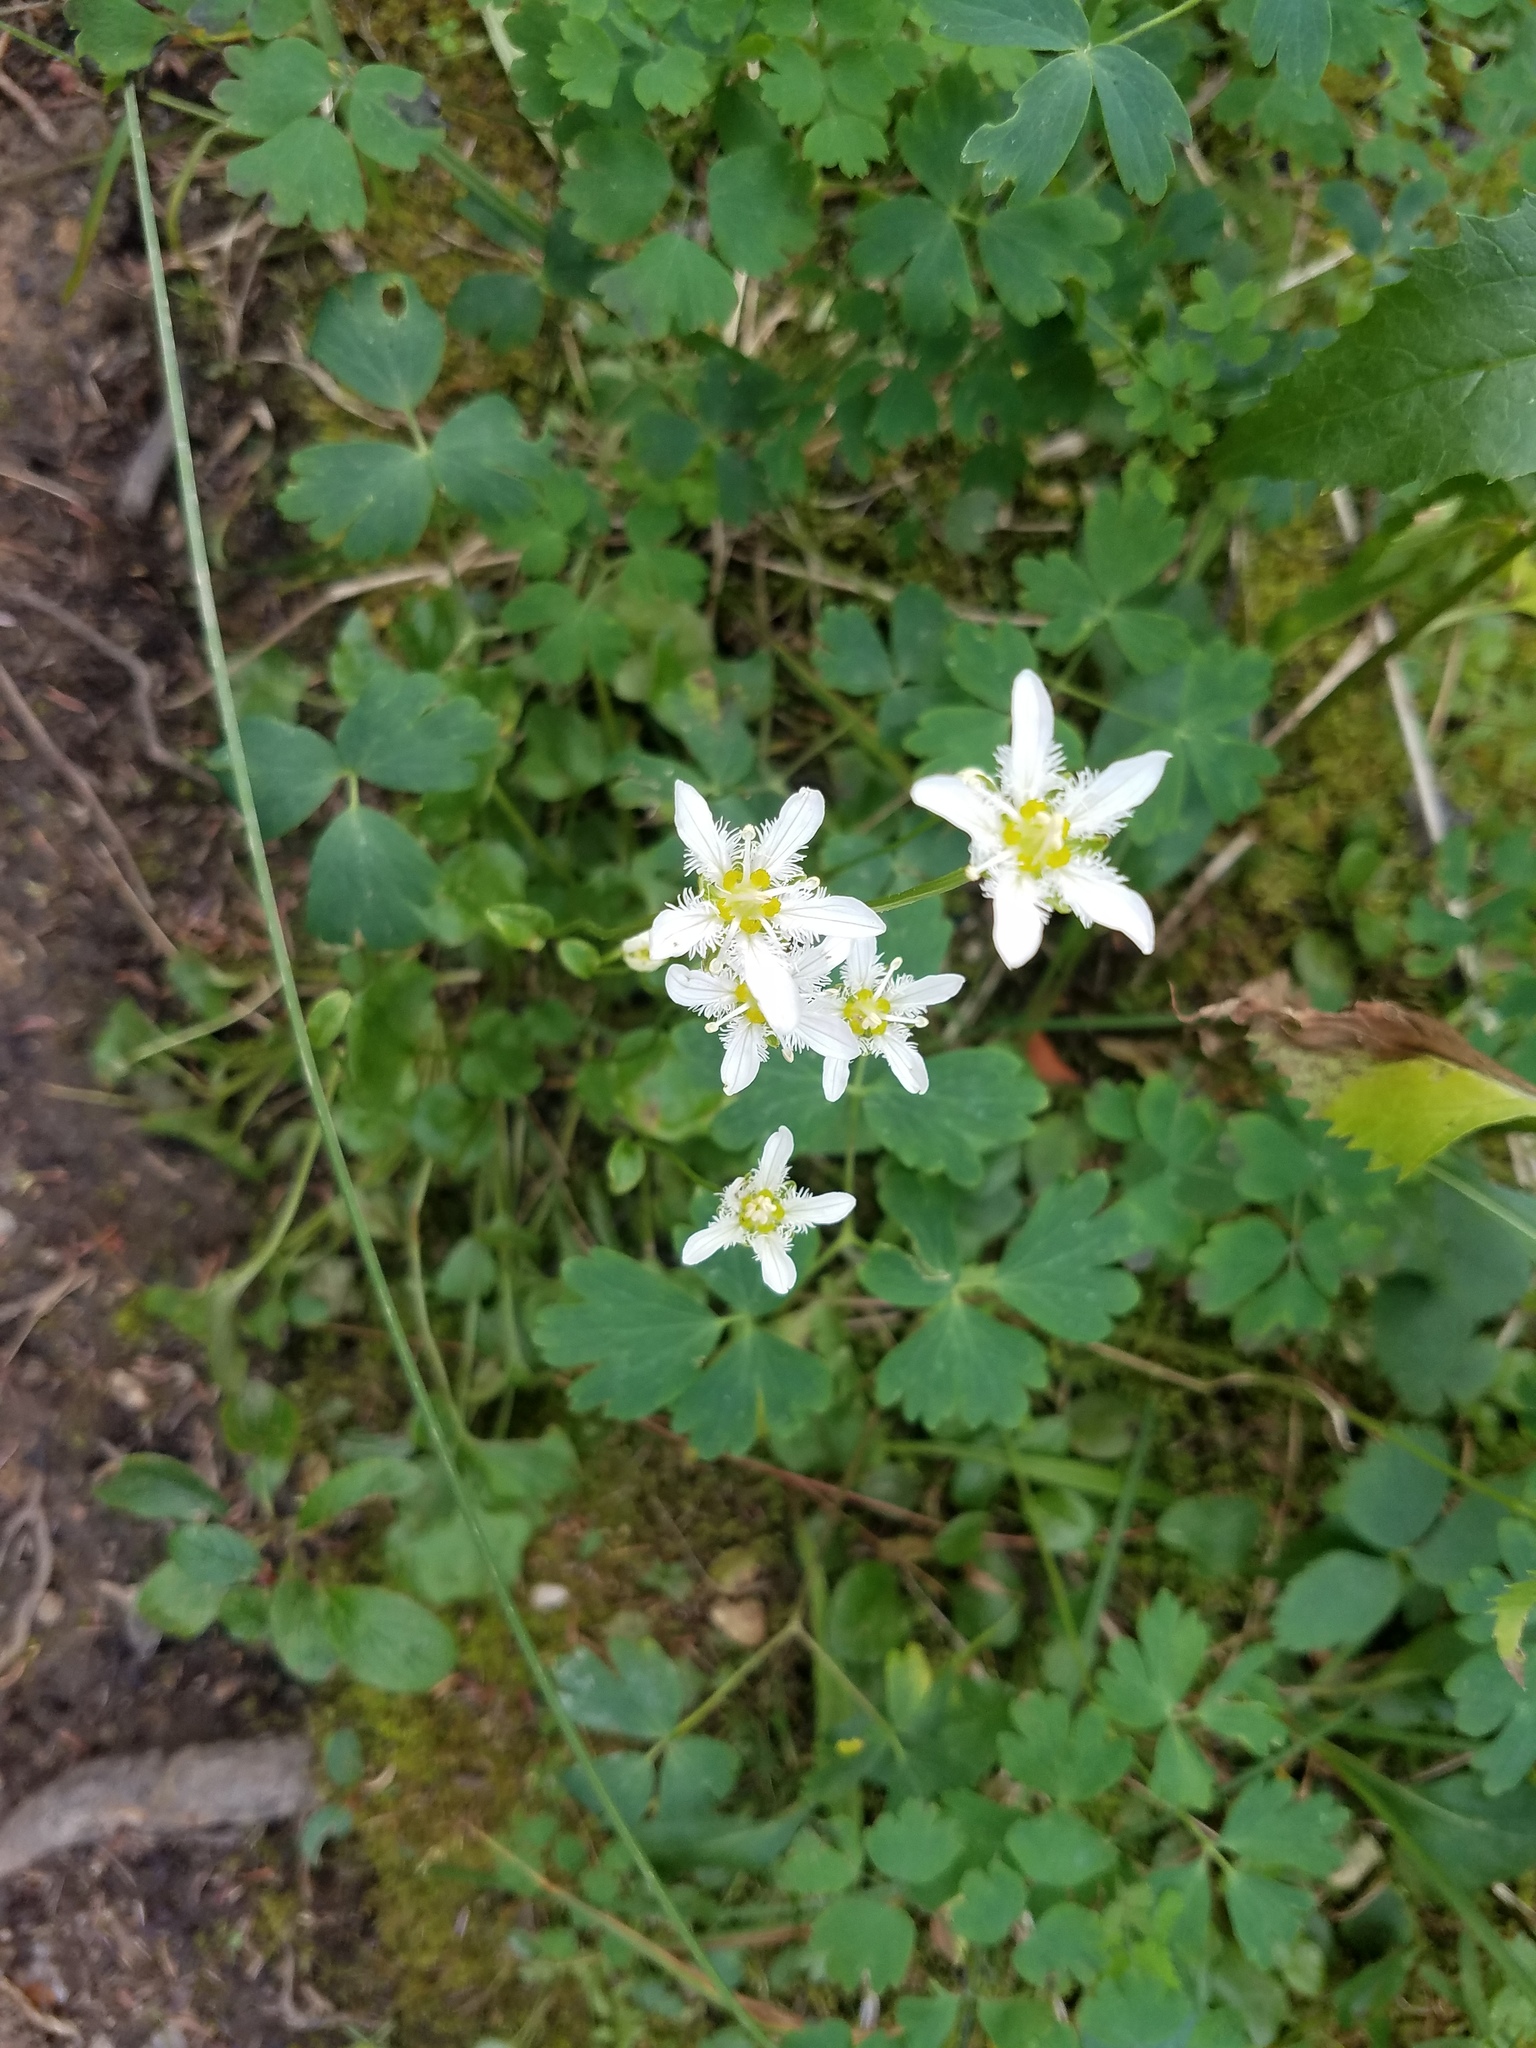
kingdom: Plantae
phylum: Tracheophyta
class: Magnoliopsida
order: Celastrales
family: Parnassiaceae
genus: Parnassia
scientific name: Parnassia fimbriata
